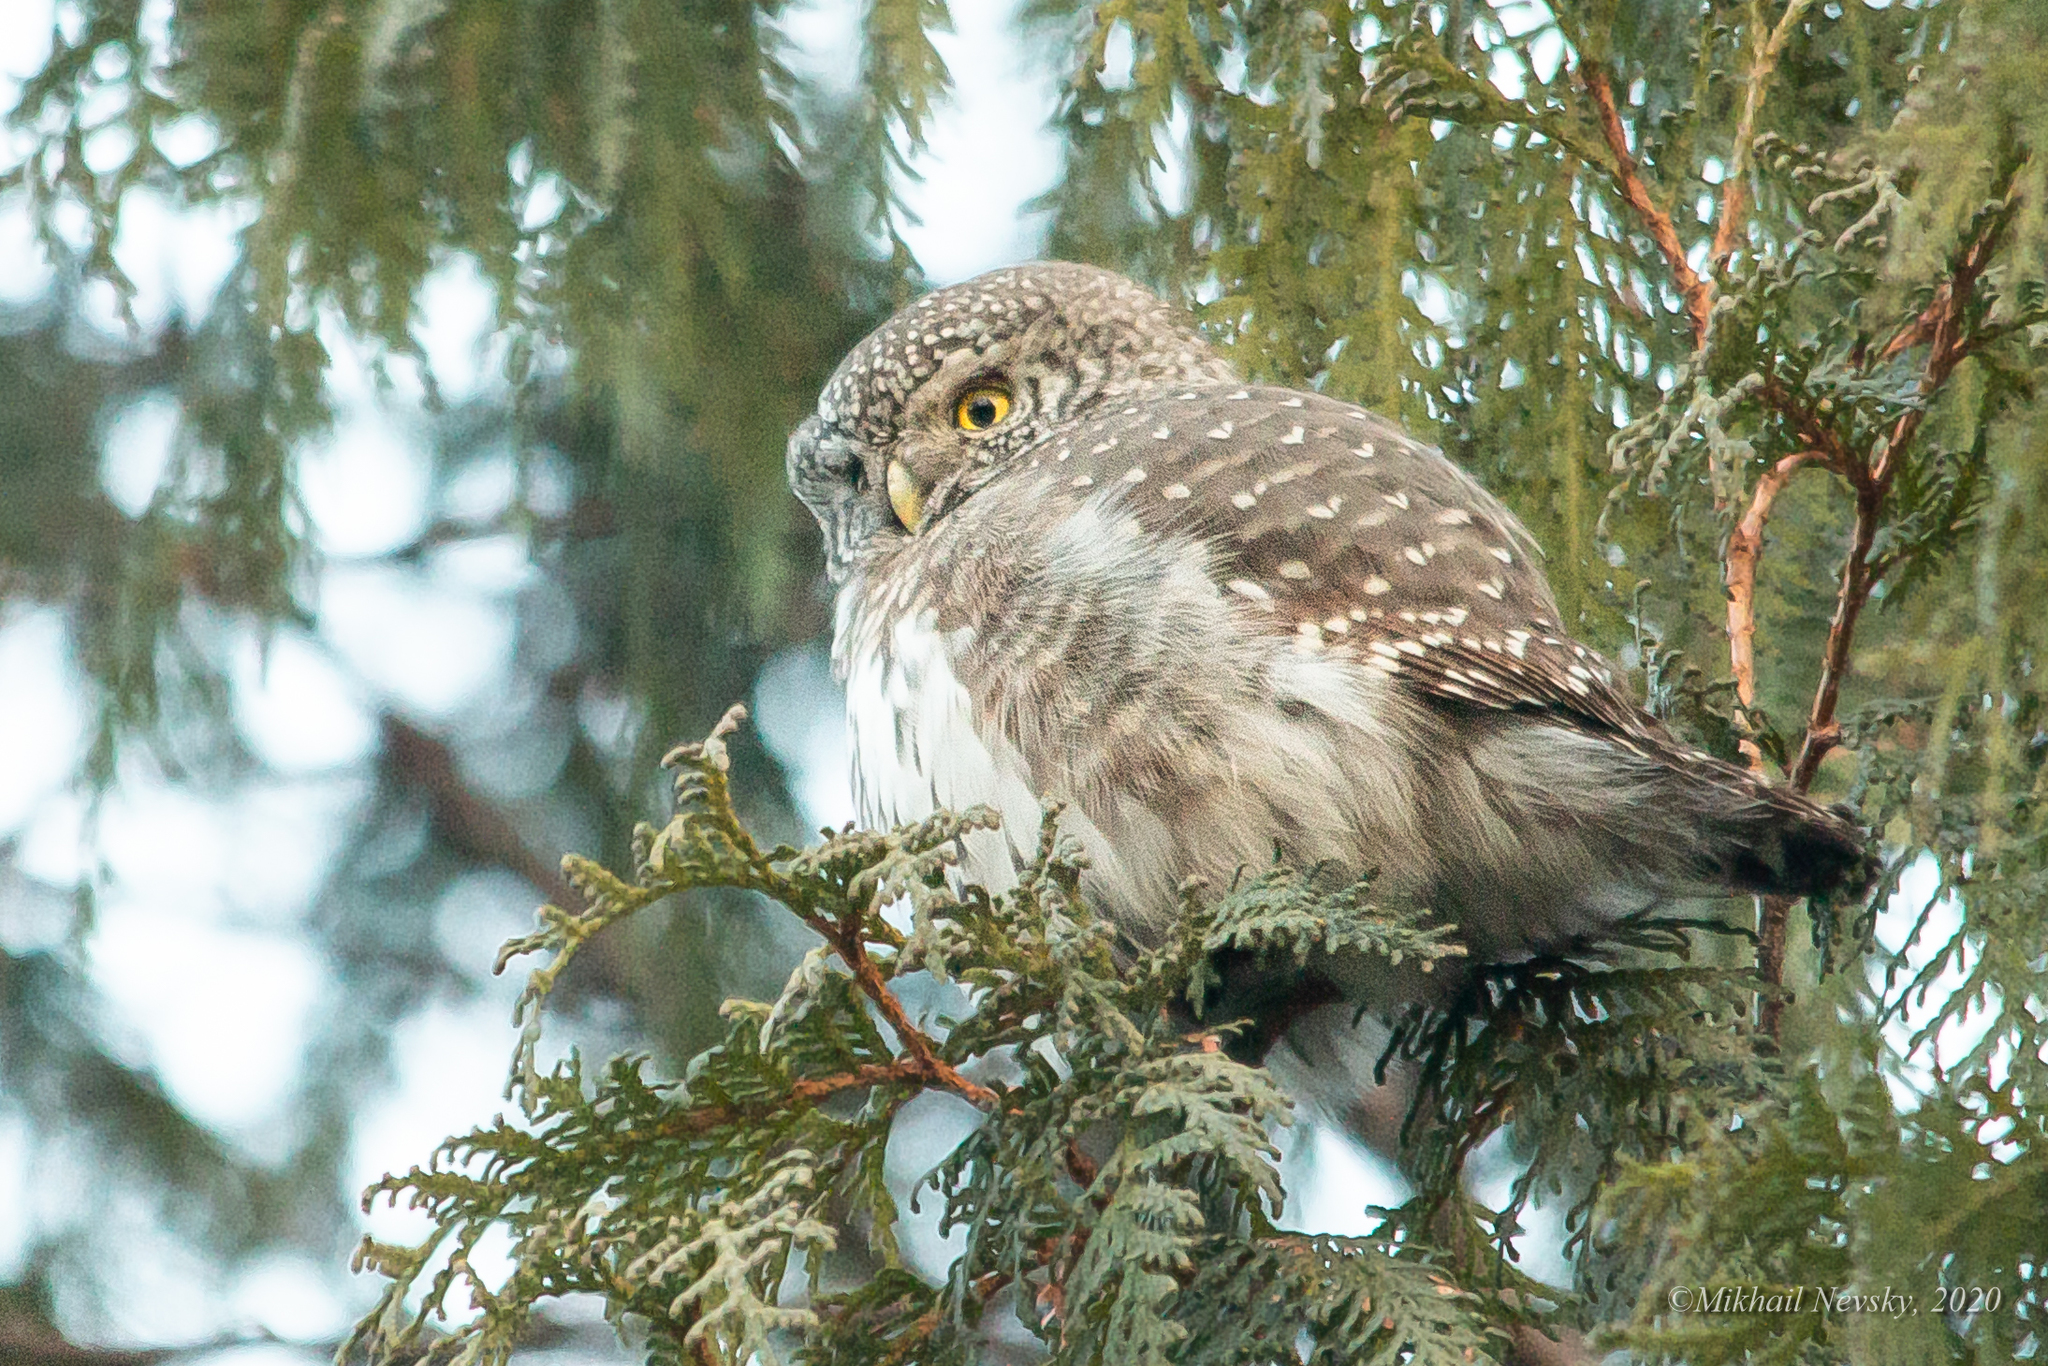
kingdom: Animalia
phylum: Chordata
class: Aves
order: Strigiformes
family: Strigidae
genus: Glaucidium
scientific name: Glaucidium passerinum
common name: Eurasian pygmy owl
